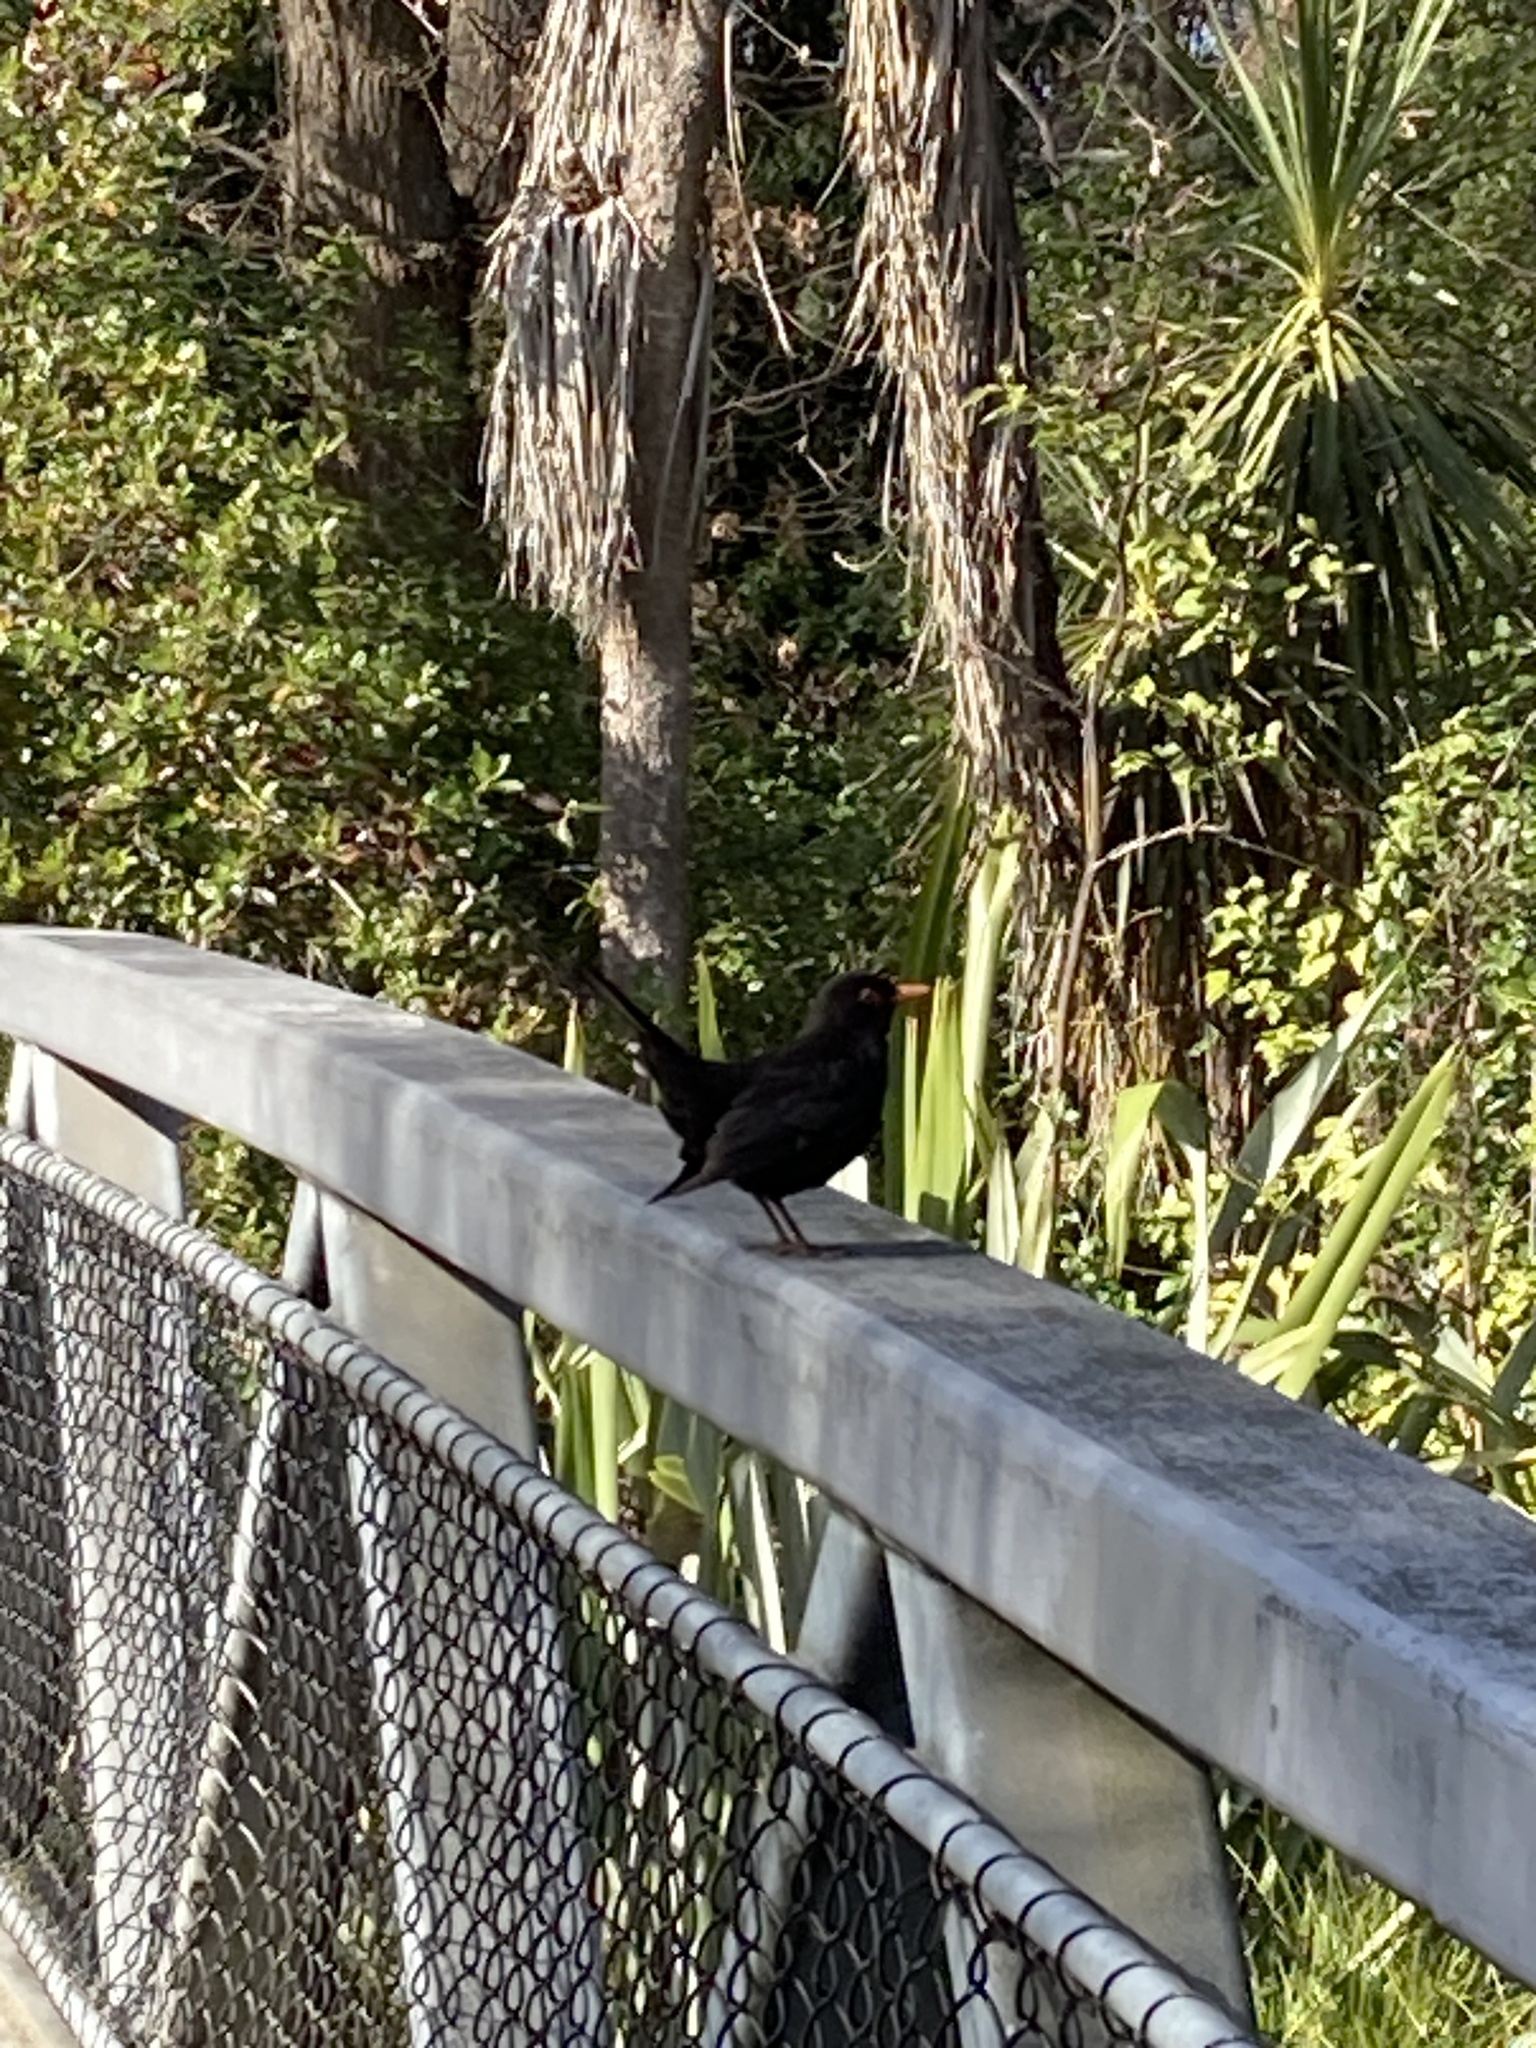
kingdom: Animalia
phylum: Chordata
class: Aves
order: Passeriformes
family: Turdidae
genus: Turdus
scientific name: Turdus merula
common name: Common blackbird
